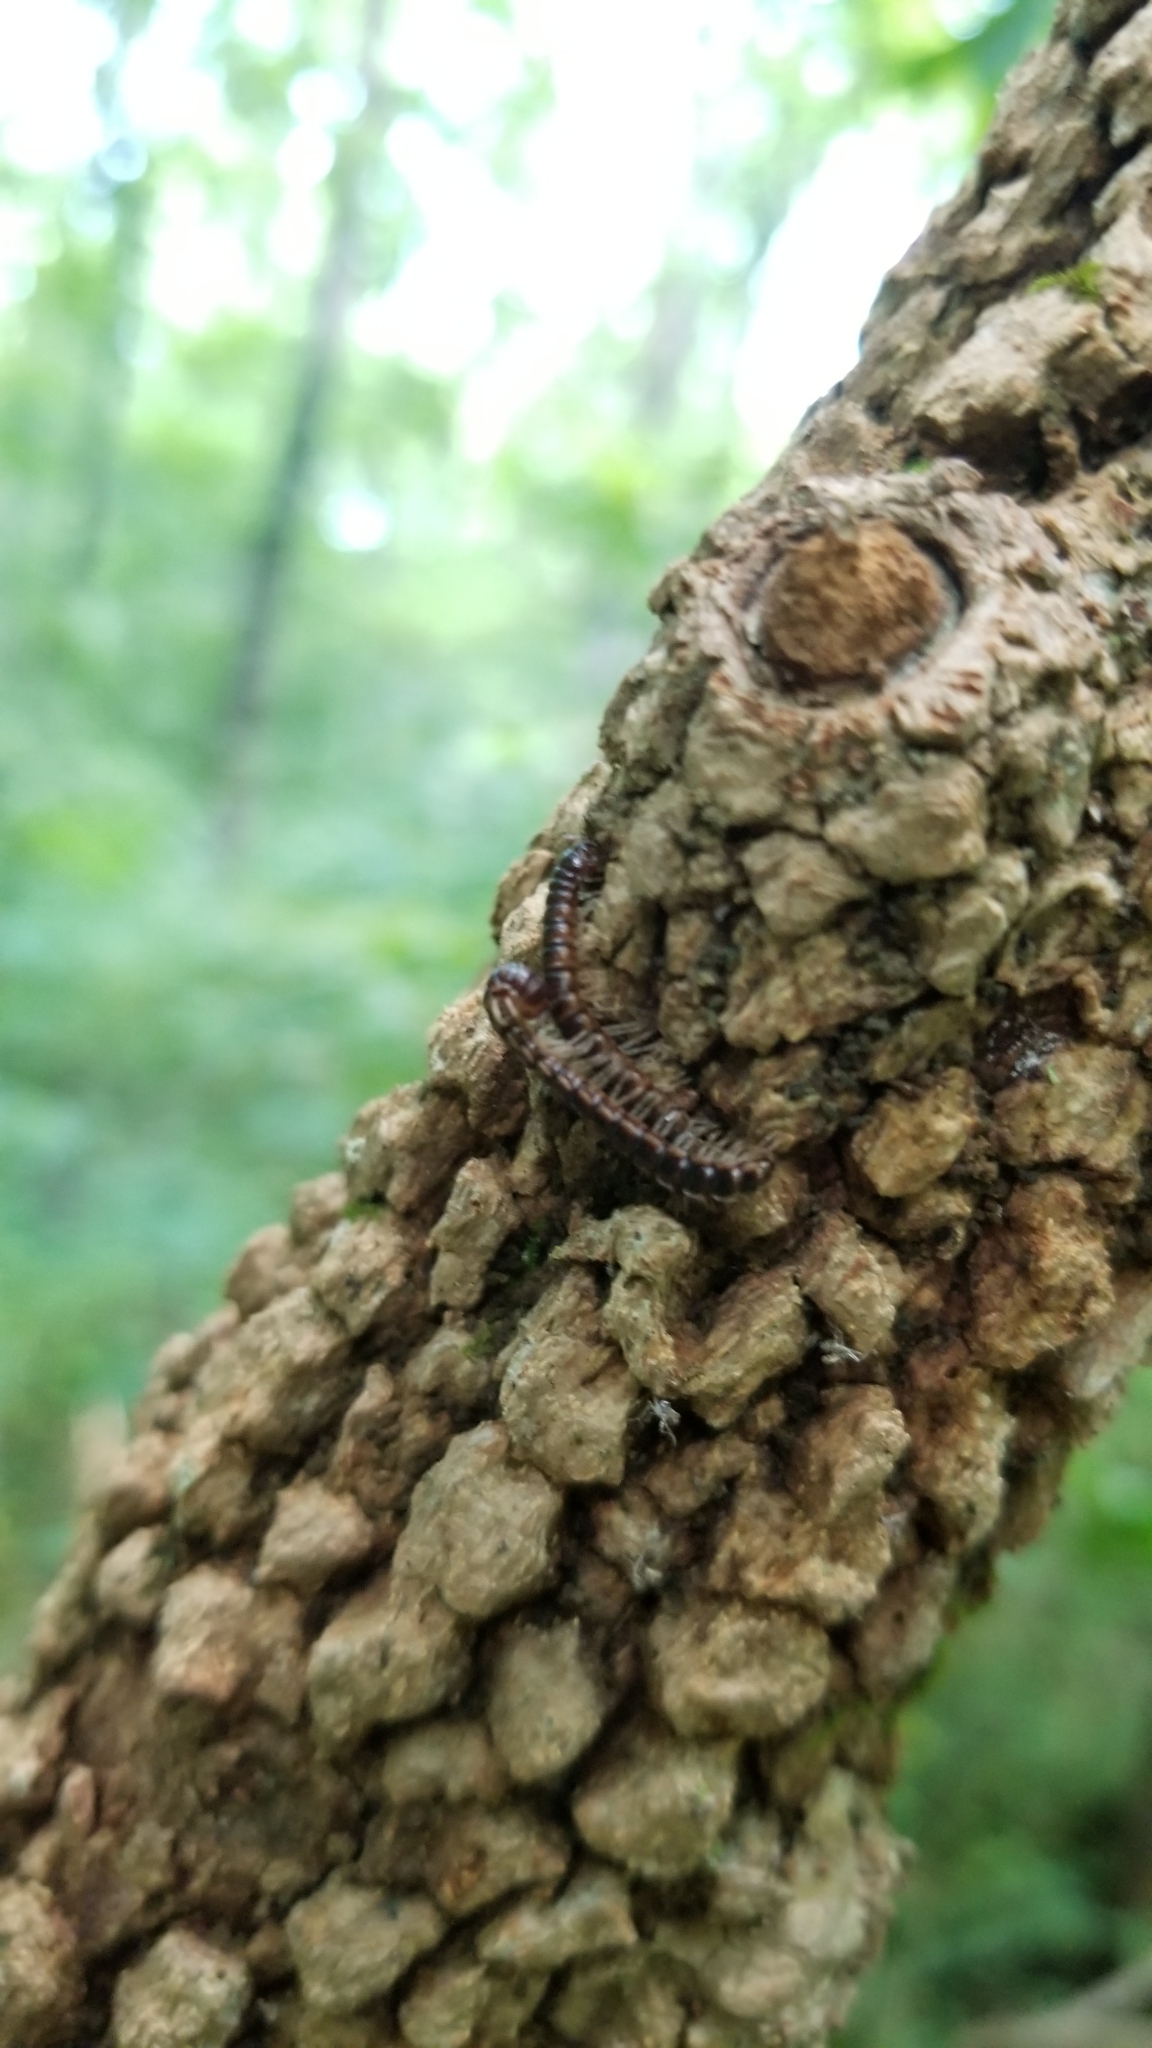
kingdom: Animalia
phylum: Arthropoda
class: Diplopoda
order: Polydesmida
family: Paradoxosomatidae
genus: Oxidus
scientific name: Oxidus gracilis
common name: Greenhouse millipede
